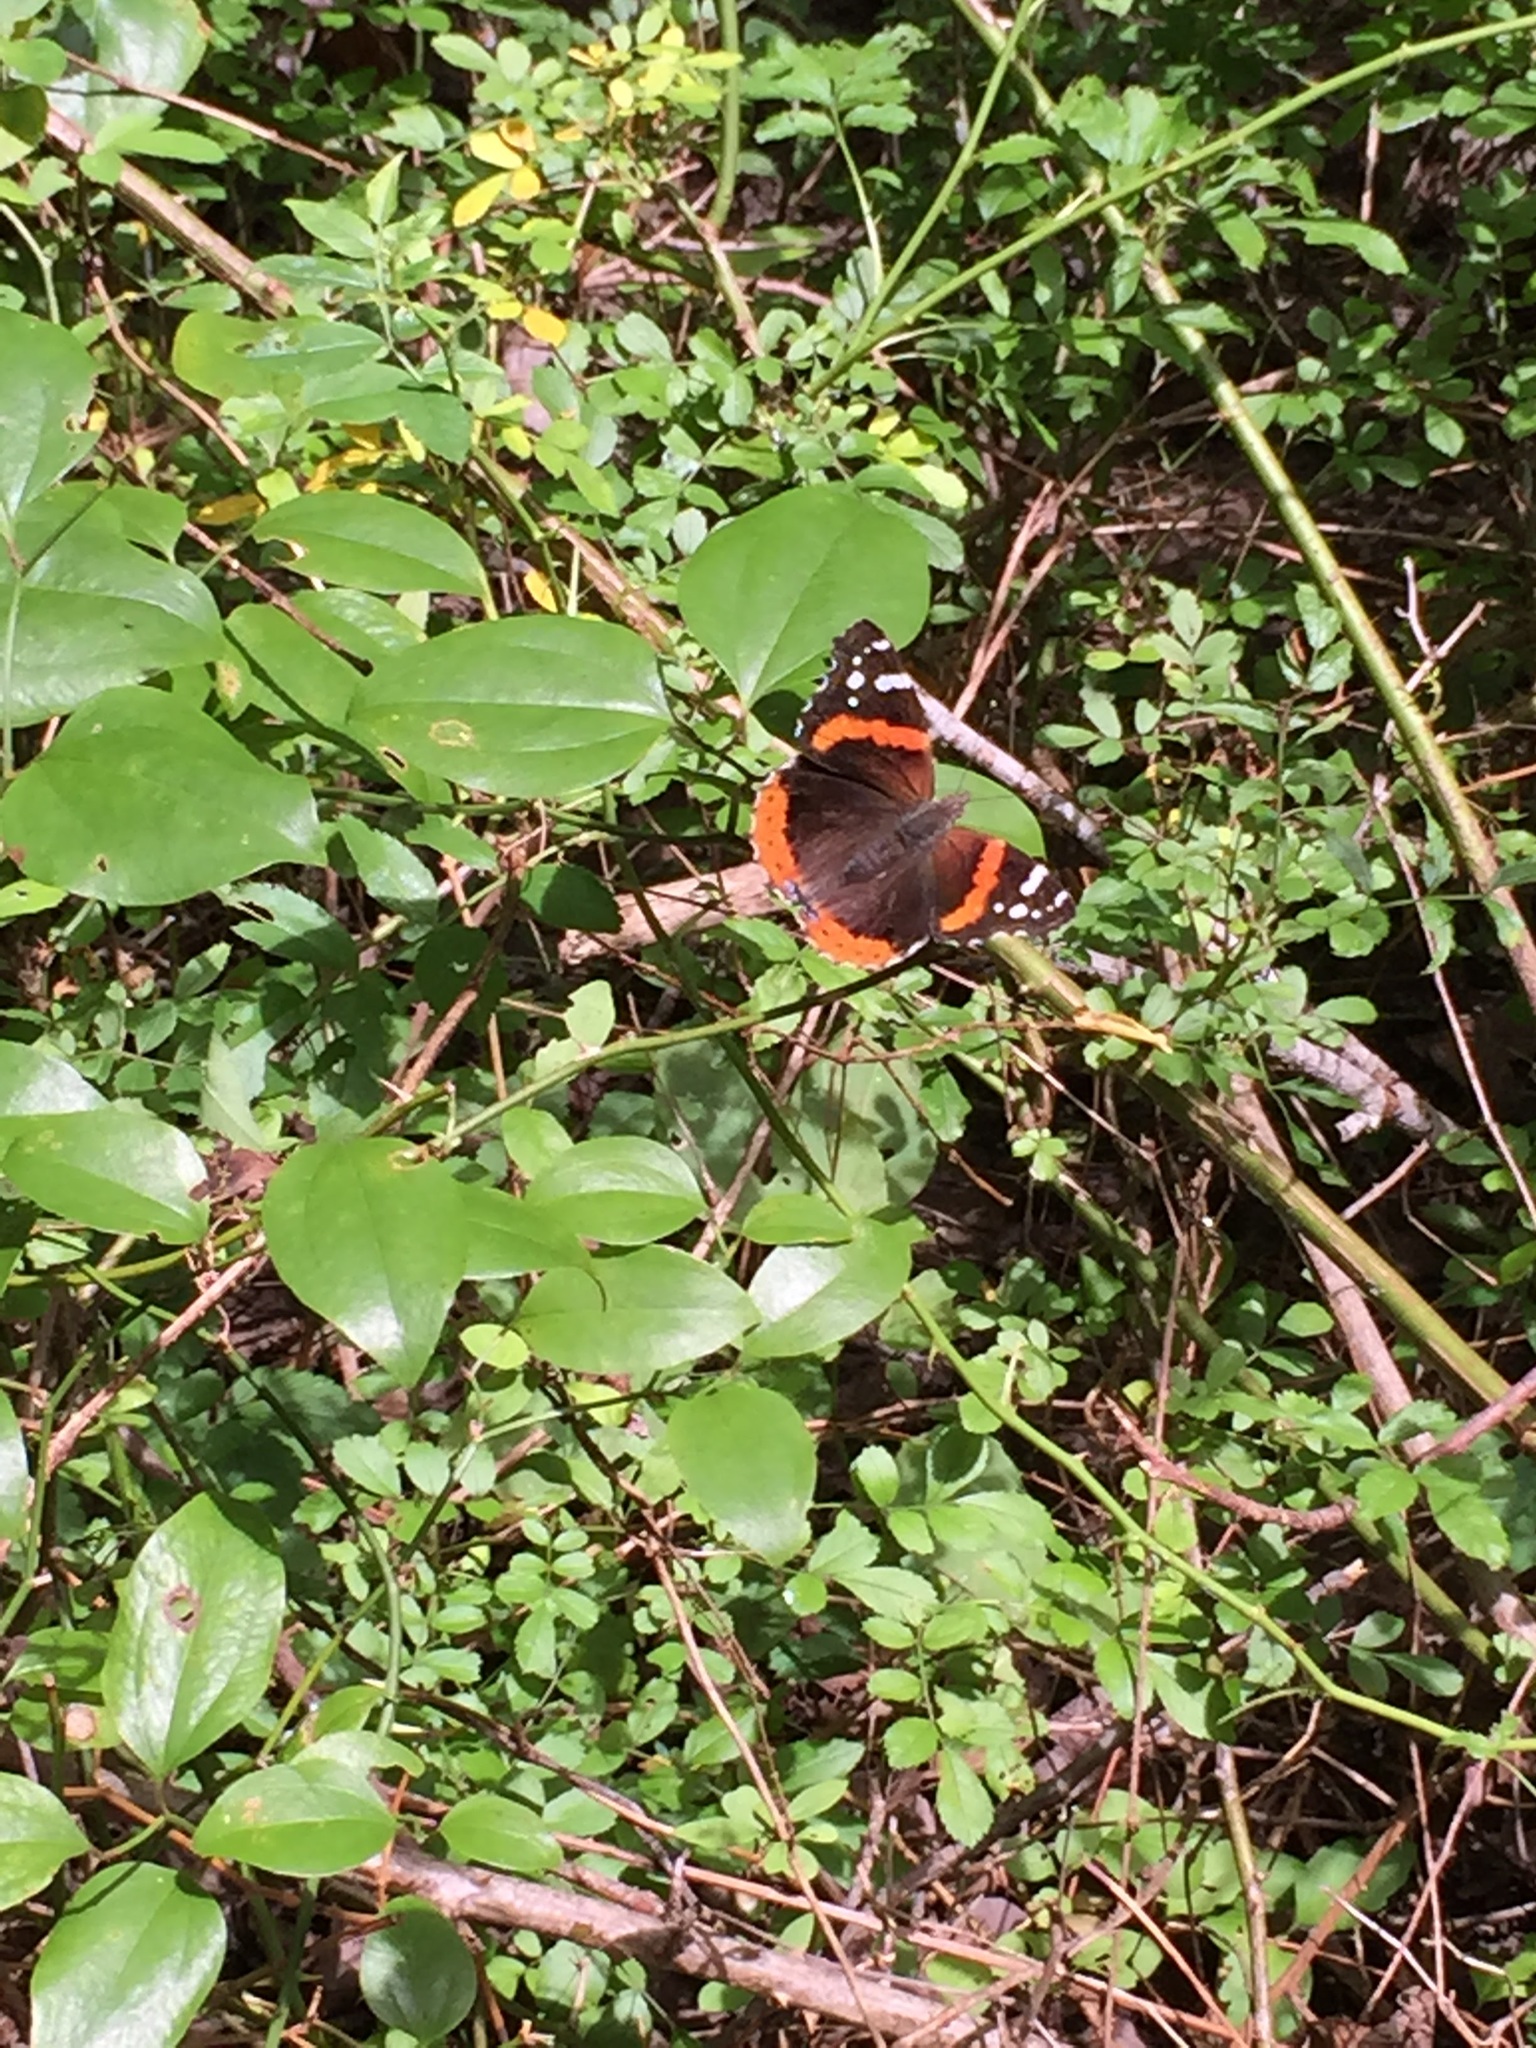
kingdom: Animalia
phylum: Arthropoda
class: Insecta
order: Lepidoptera
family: Nymphalidae
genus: Vanessa
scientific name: Vanessa atalanta
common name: Red admiral
